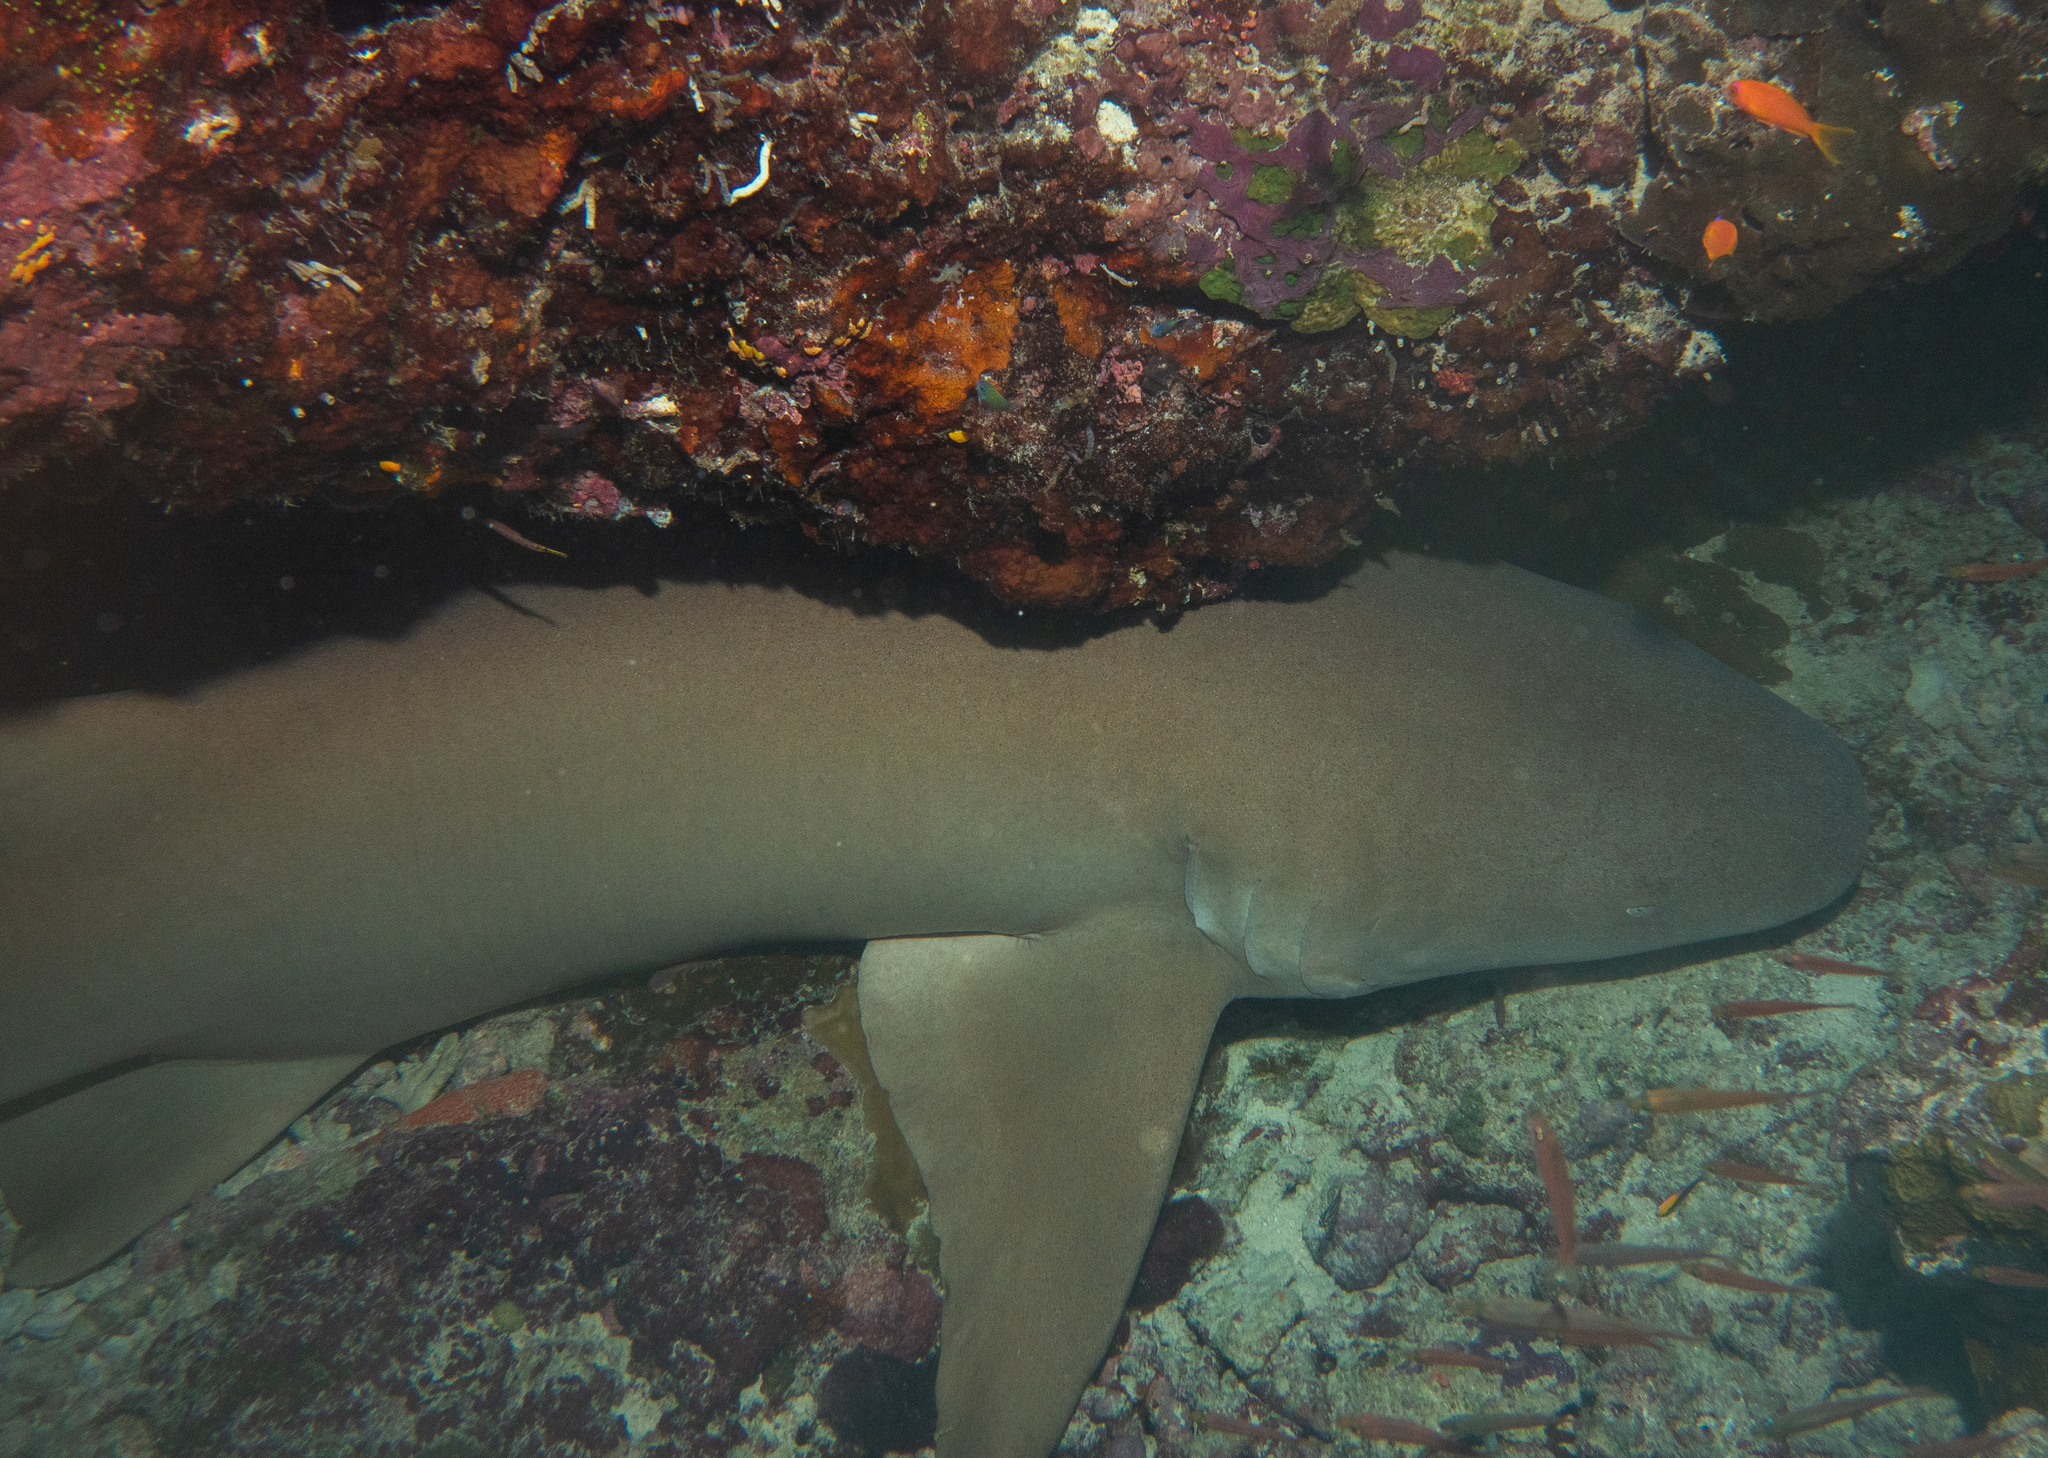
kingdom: Animalia
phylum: Chordata
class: Elasmobranchii
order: Orectolobiformes
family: Ginglymostomatidae
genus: Nebrius
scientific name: Nebrius ferrugineus
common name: Tawny nurse shark
